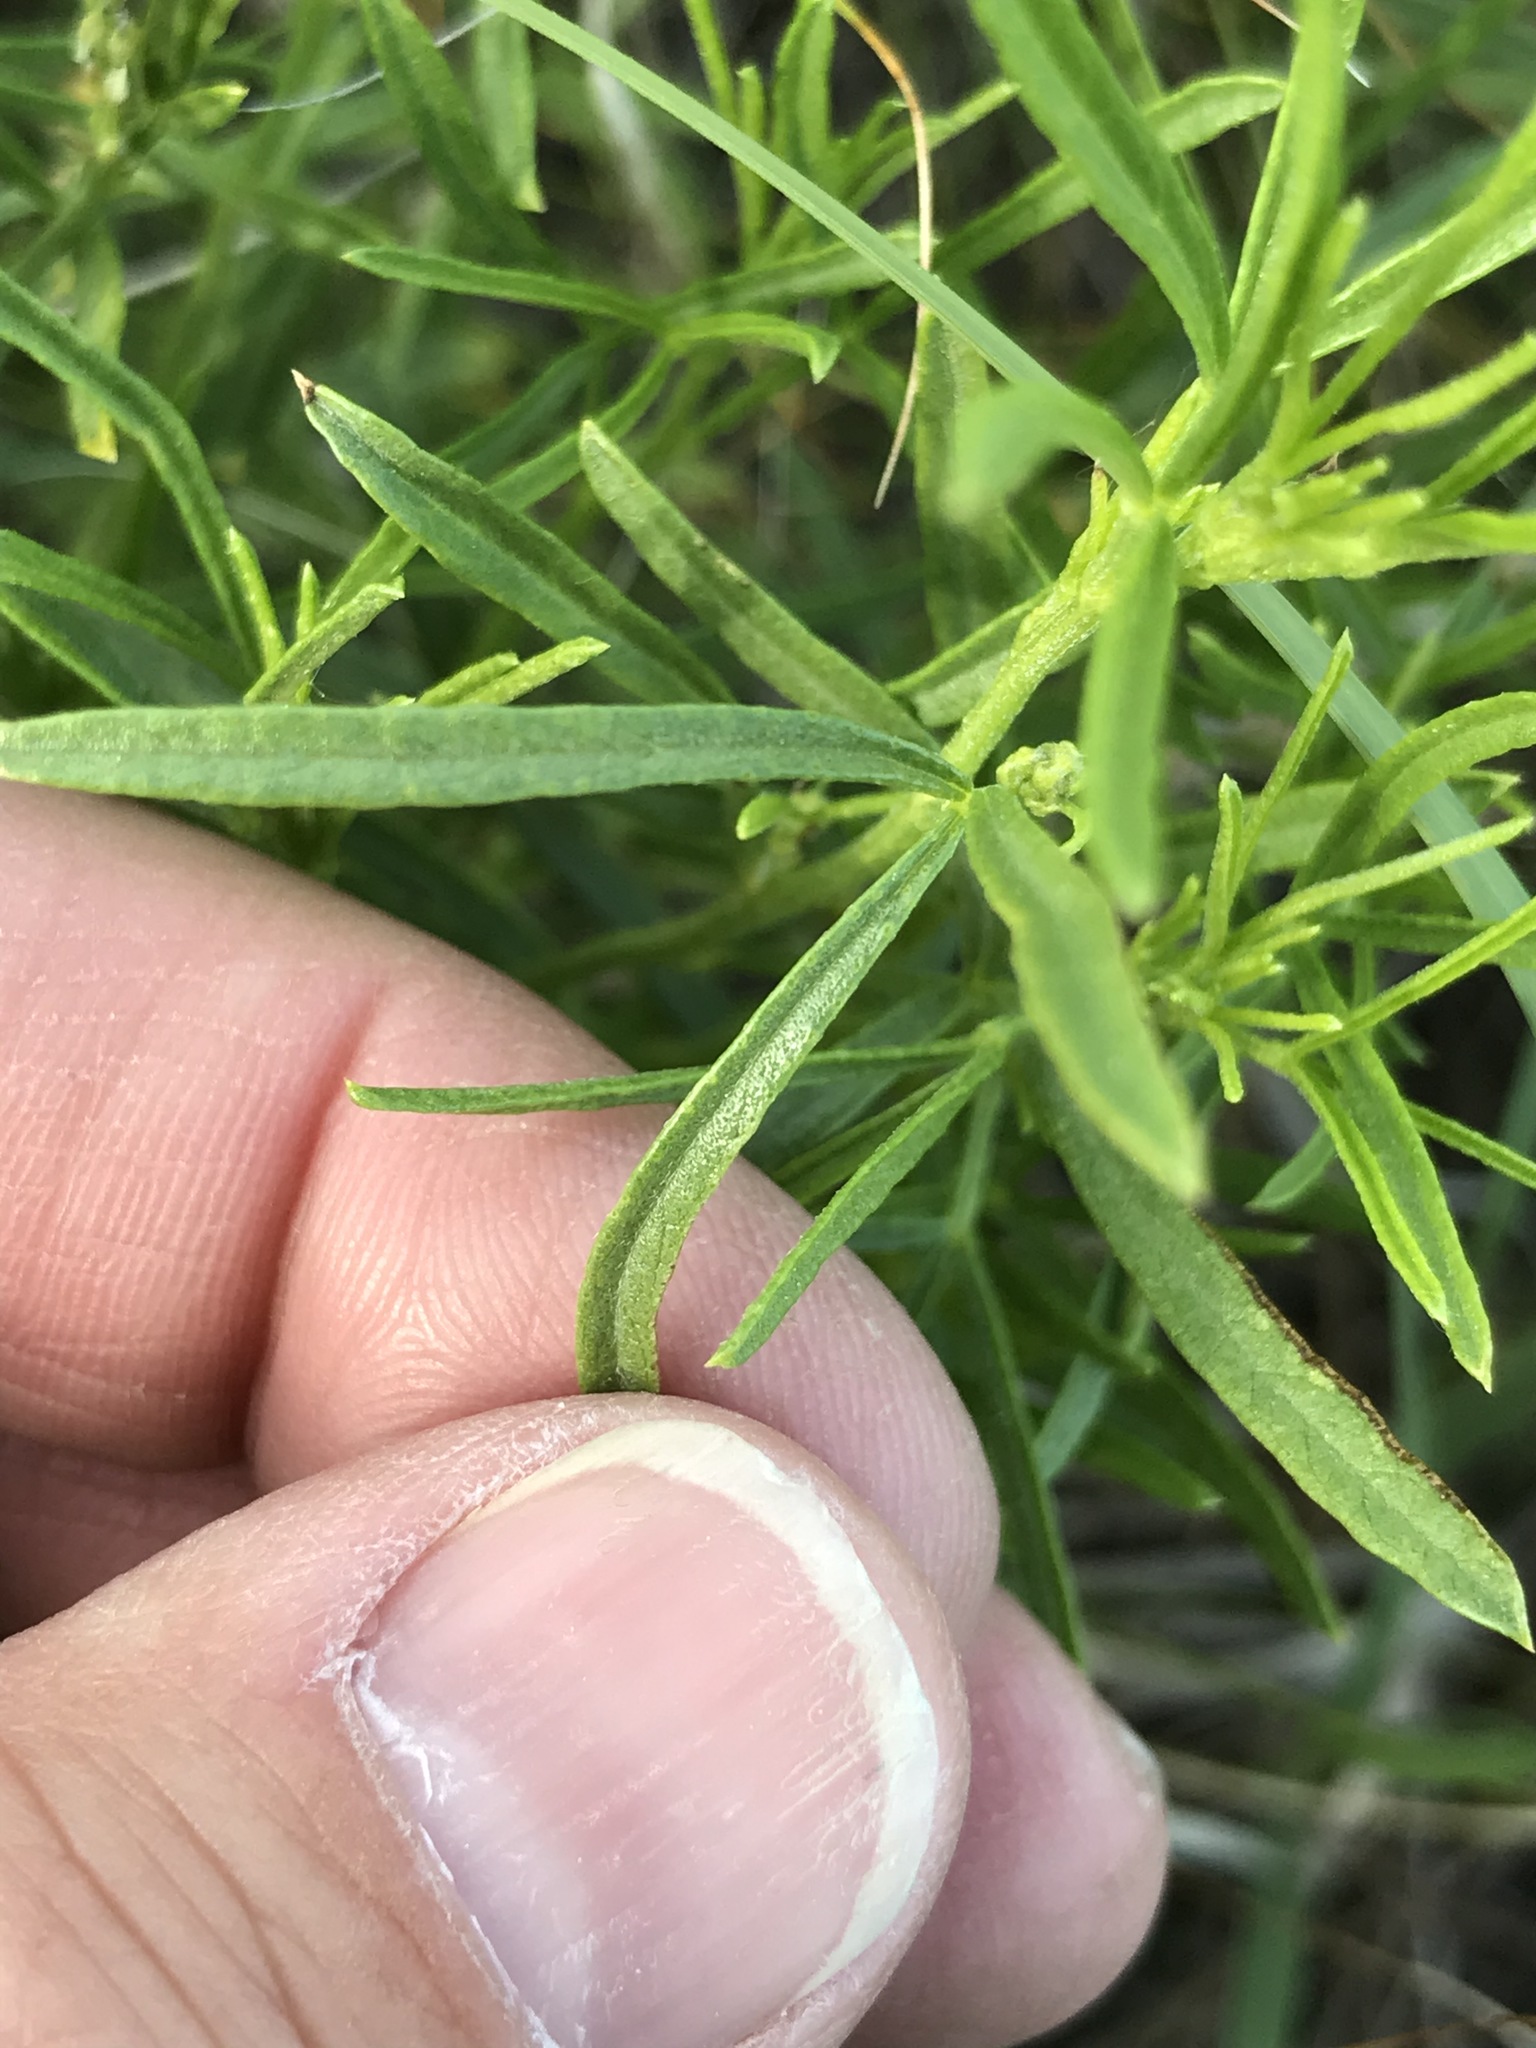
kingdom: Plantae
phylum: Tracheophyta
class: Magnoliopsida
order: Fabales
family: Fabaceae
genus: Ladeania
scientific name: Ladeania lanceolata
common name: Dune scurf-pea
